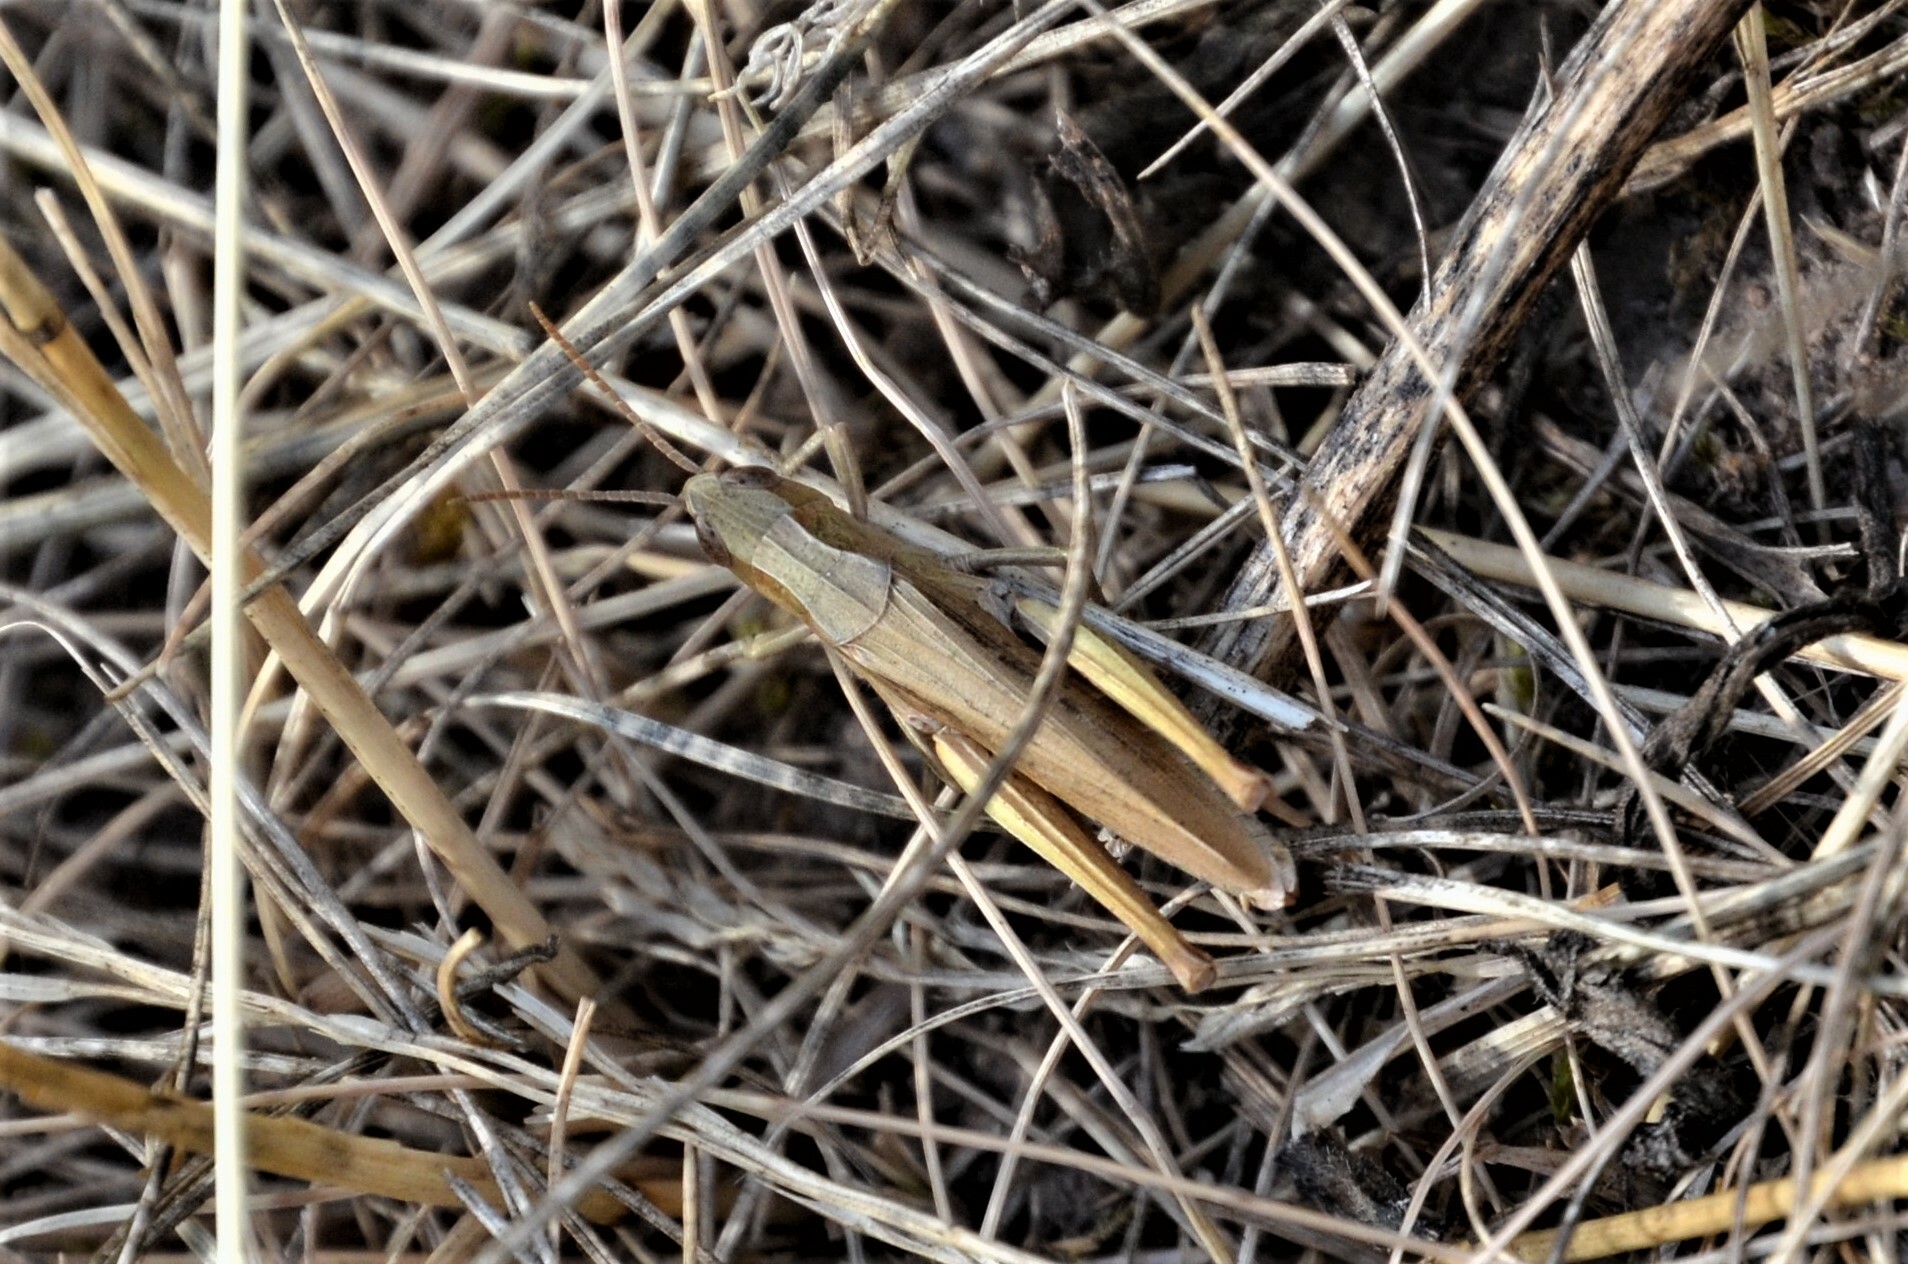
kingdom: Animalia
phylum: Arthropoda
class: Insecta
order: Orthoptera
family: Acrididae
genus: Chorthippus
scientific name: Chorthippus dorsatus
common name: Steppe grasshopper
